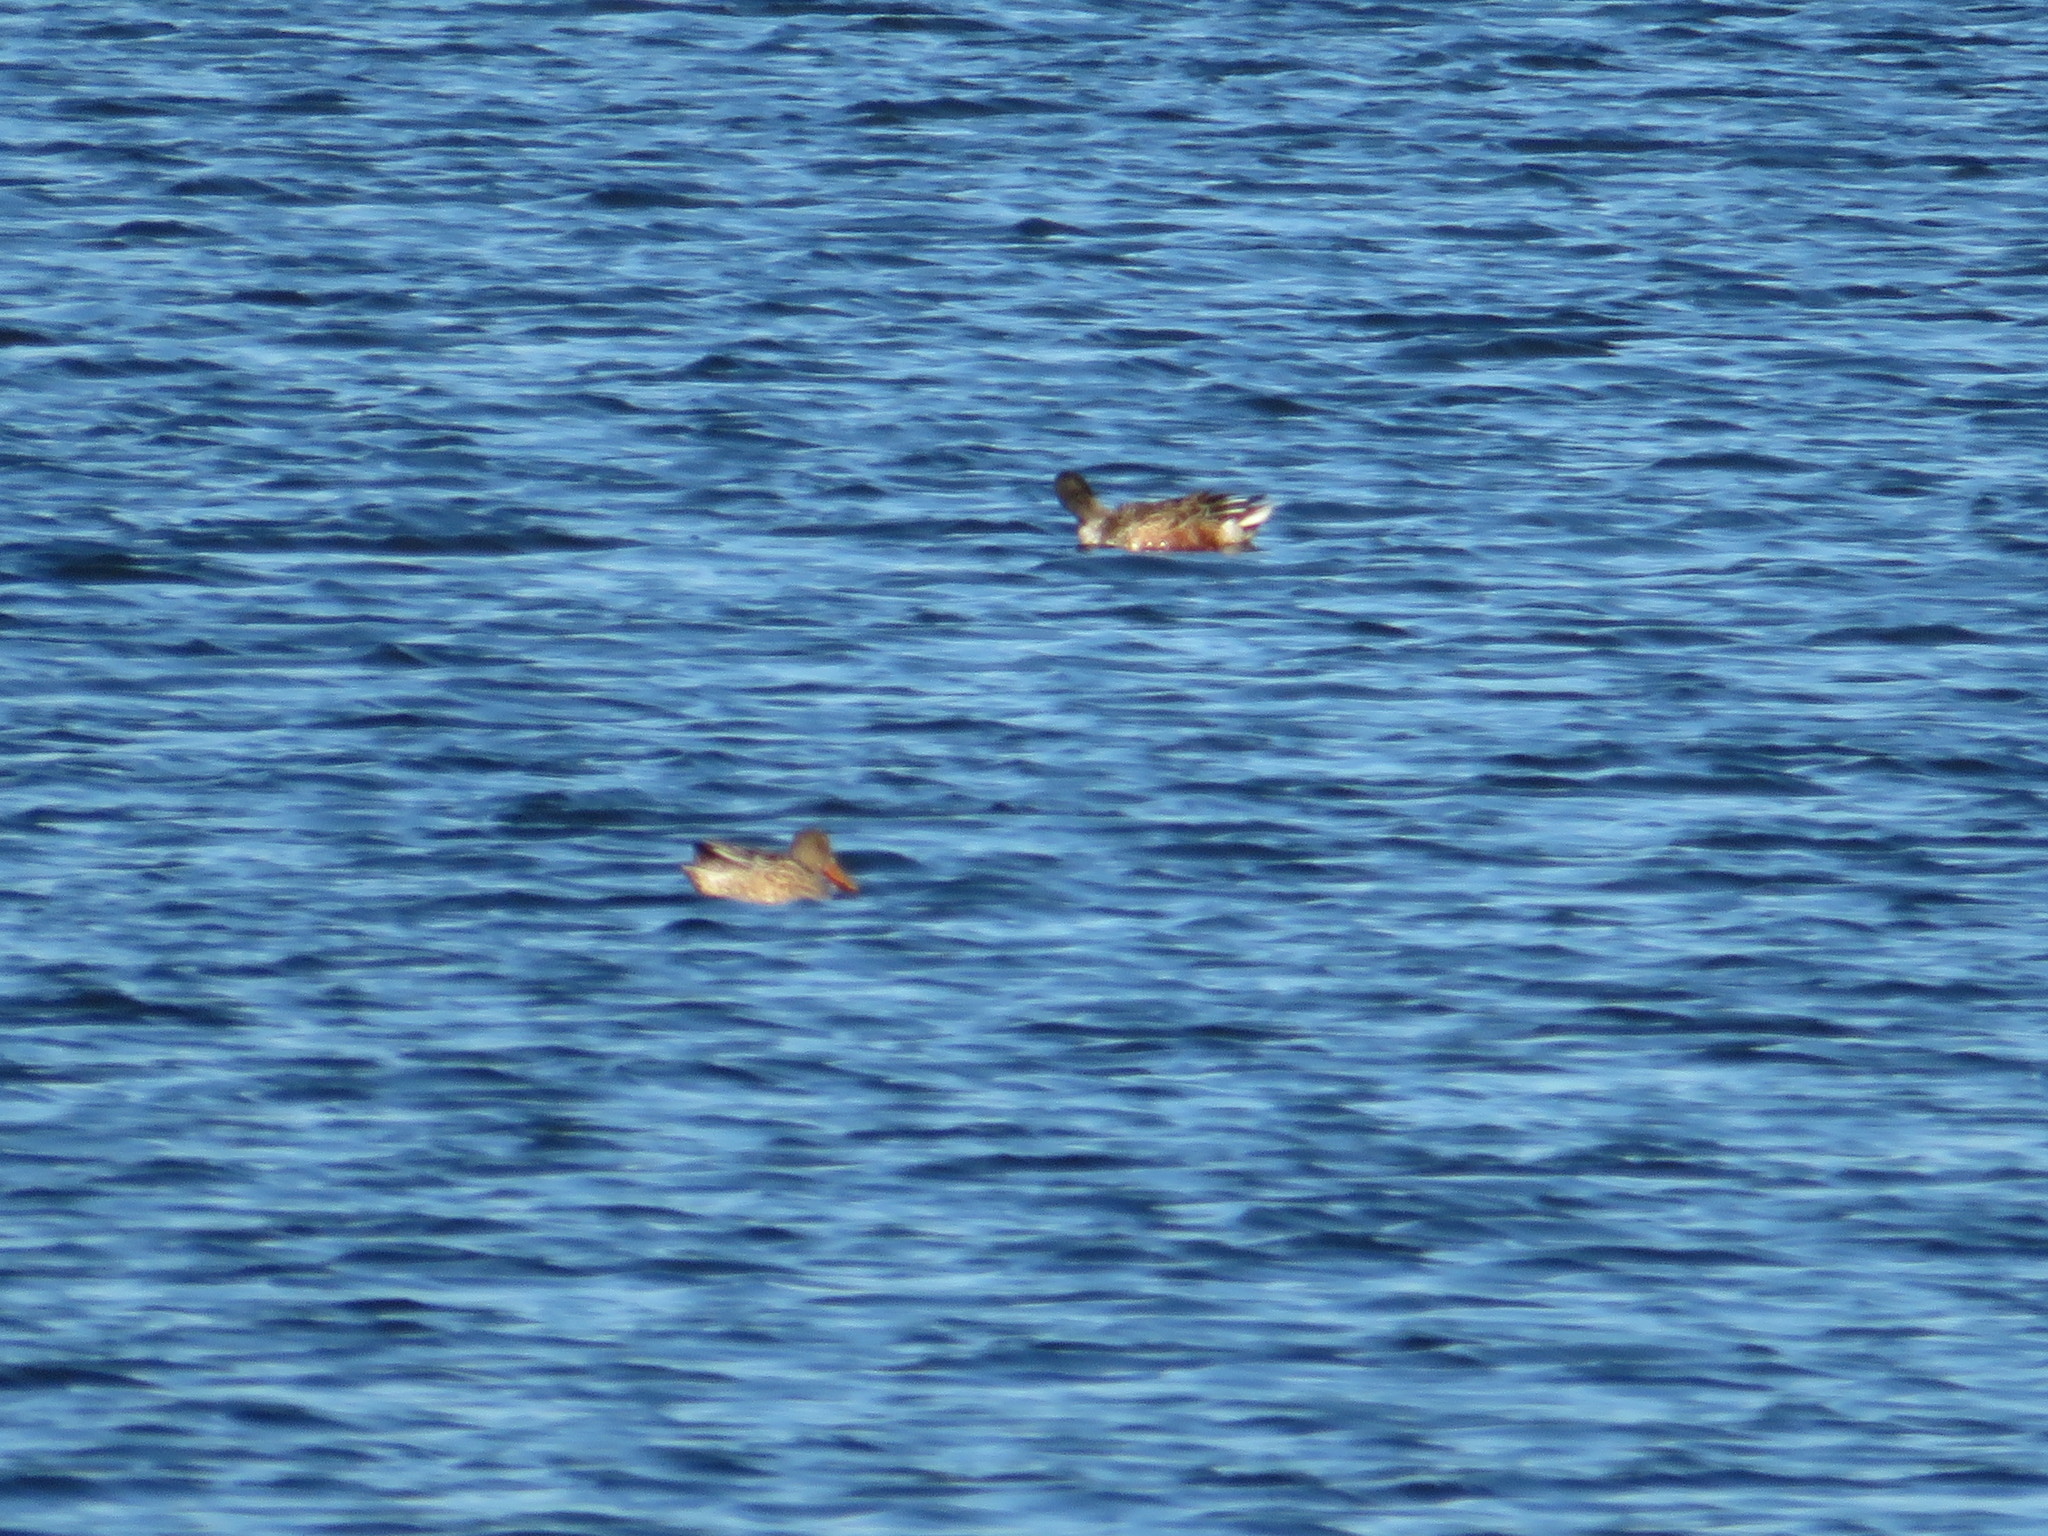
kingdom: Animalia
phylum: Chordata
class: Aves
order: Anseriformes
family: Anatidae
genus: Spatula
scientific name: Spatula clypeata
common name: Northern shoveler
